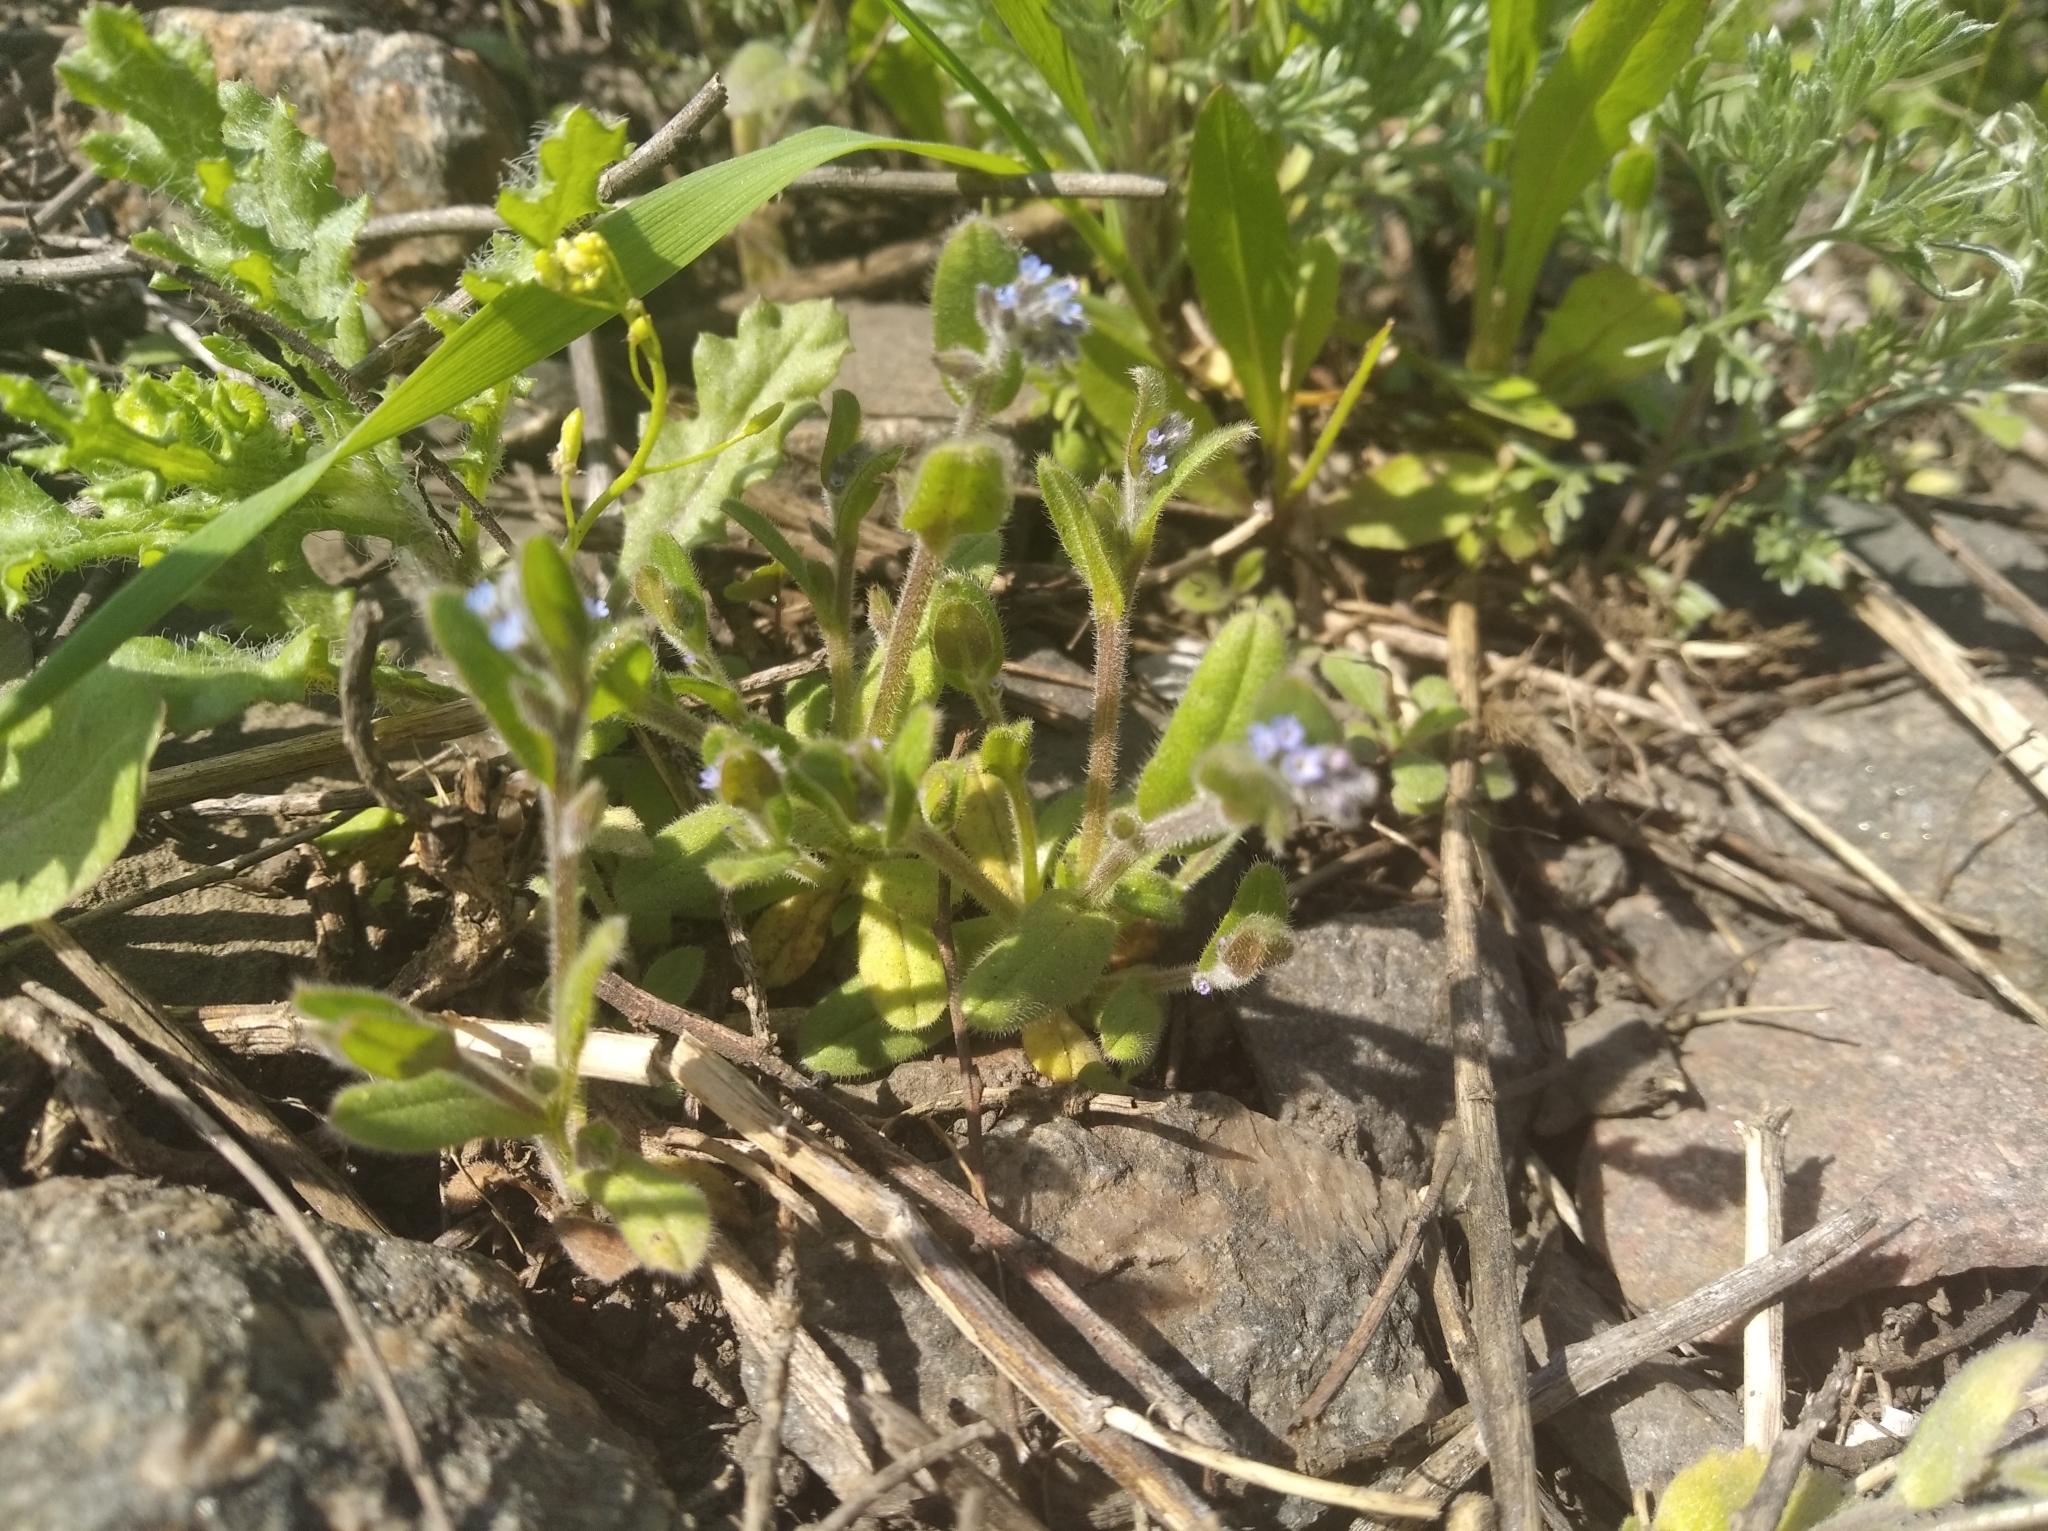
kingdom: Plantae
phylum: Tracheophyta
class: Magnoliopsida
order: Boraginales
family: Boraginaceae
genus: Myosotis
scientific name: Myosotis stricta
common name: Strict forget-me-not
